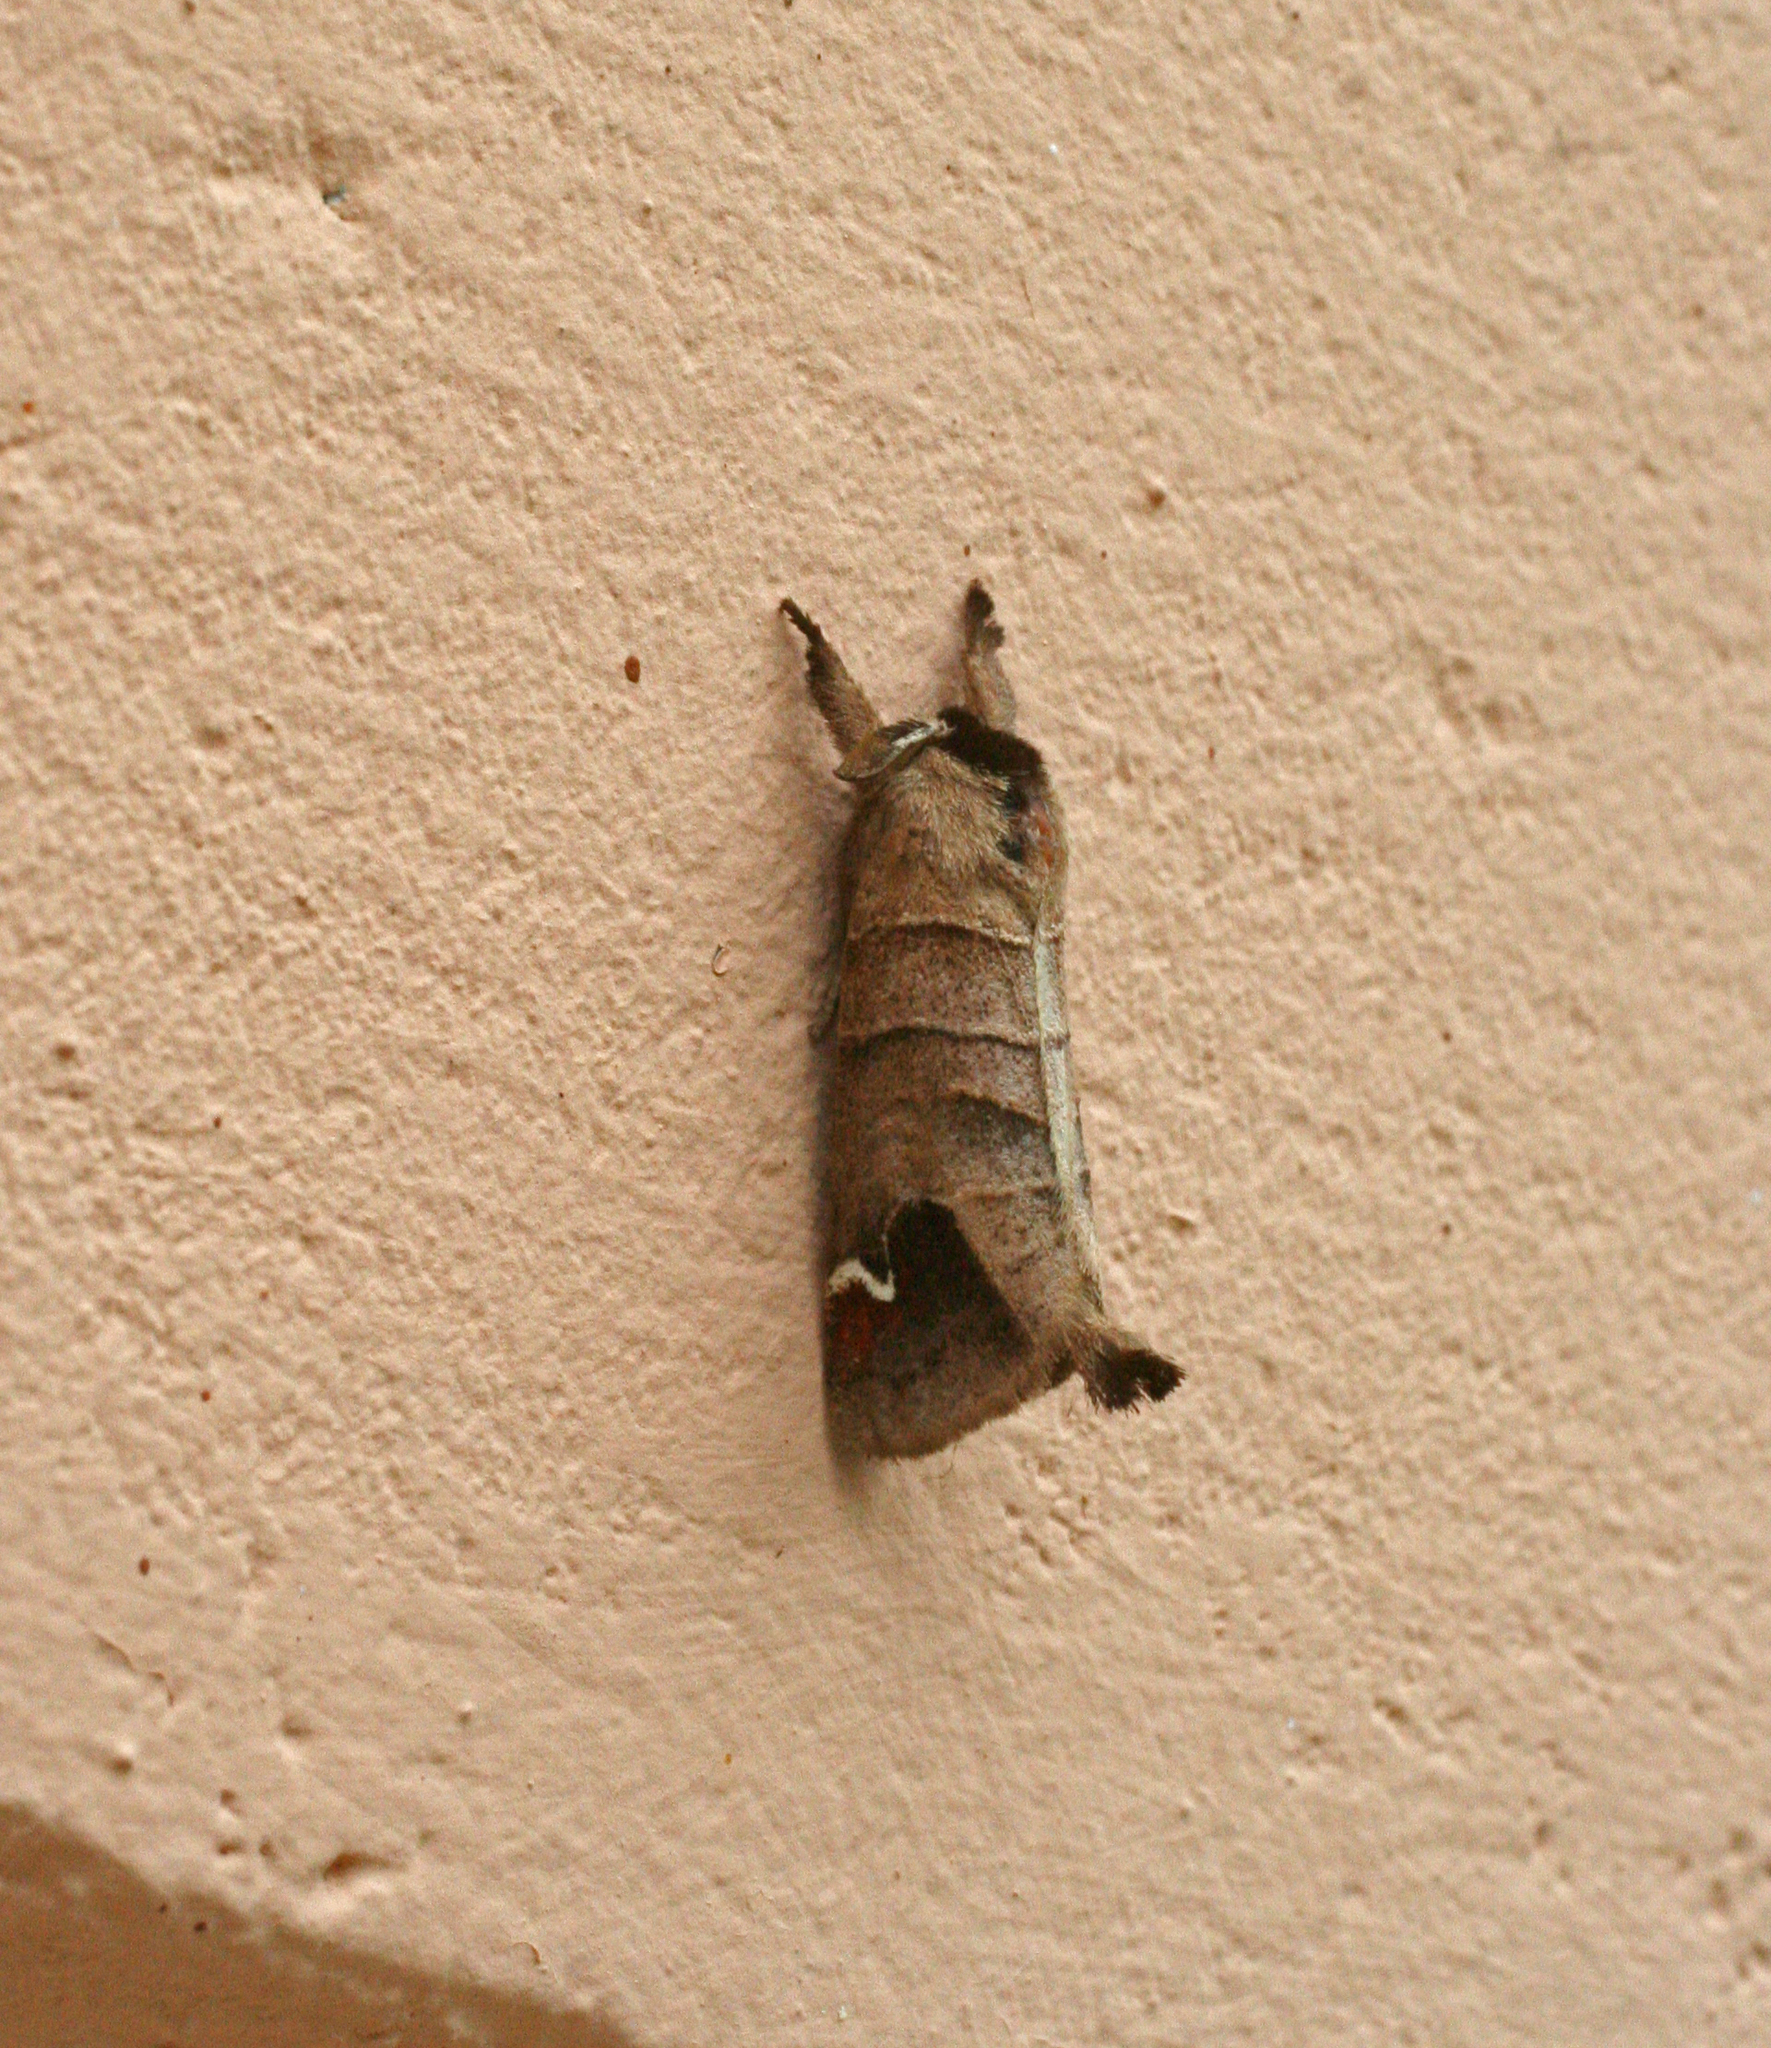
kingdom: Animalia
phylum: Arthropoda
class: Insecta
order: Lepidoptera
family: Notodontidae
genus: Clostera
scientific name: Clostera albosigma
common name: Sigmoid prominent
